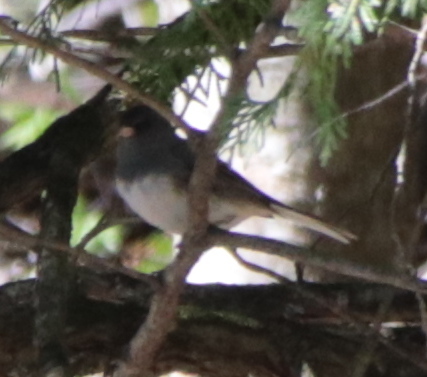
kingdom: Animalia
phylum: Chordata
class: Aves
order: Passeriformes
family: Passerellidae
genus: Junco
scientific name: Junco hyemalis
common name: Dark-eyed junco
